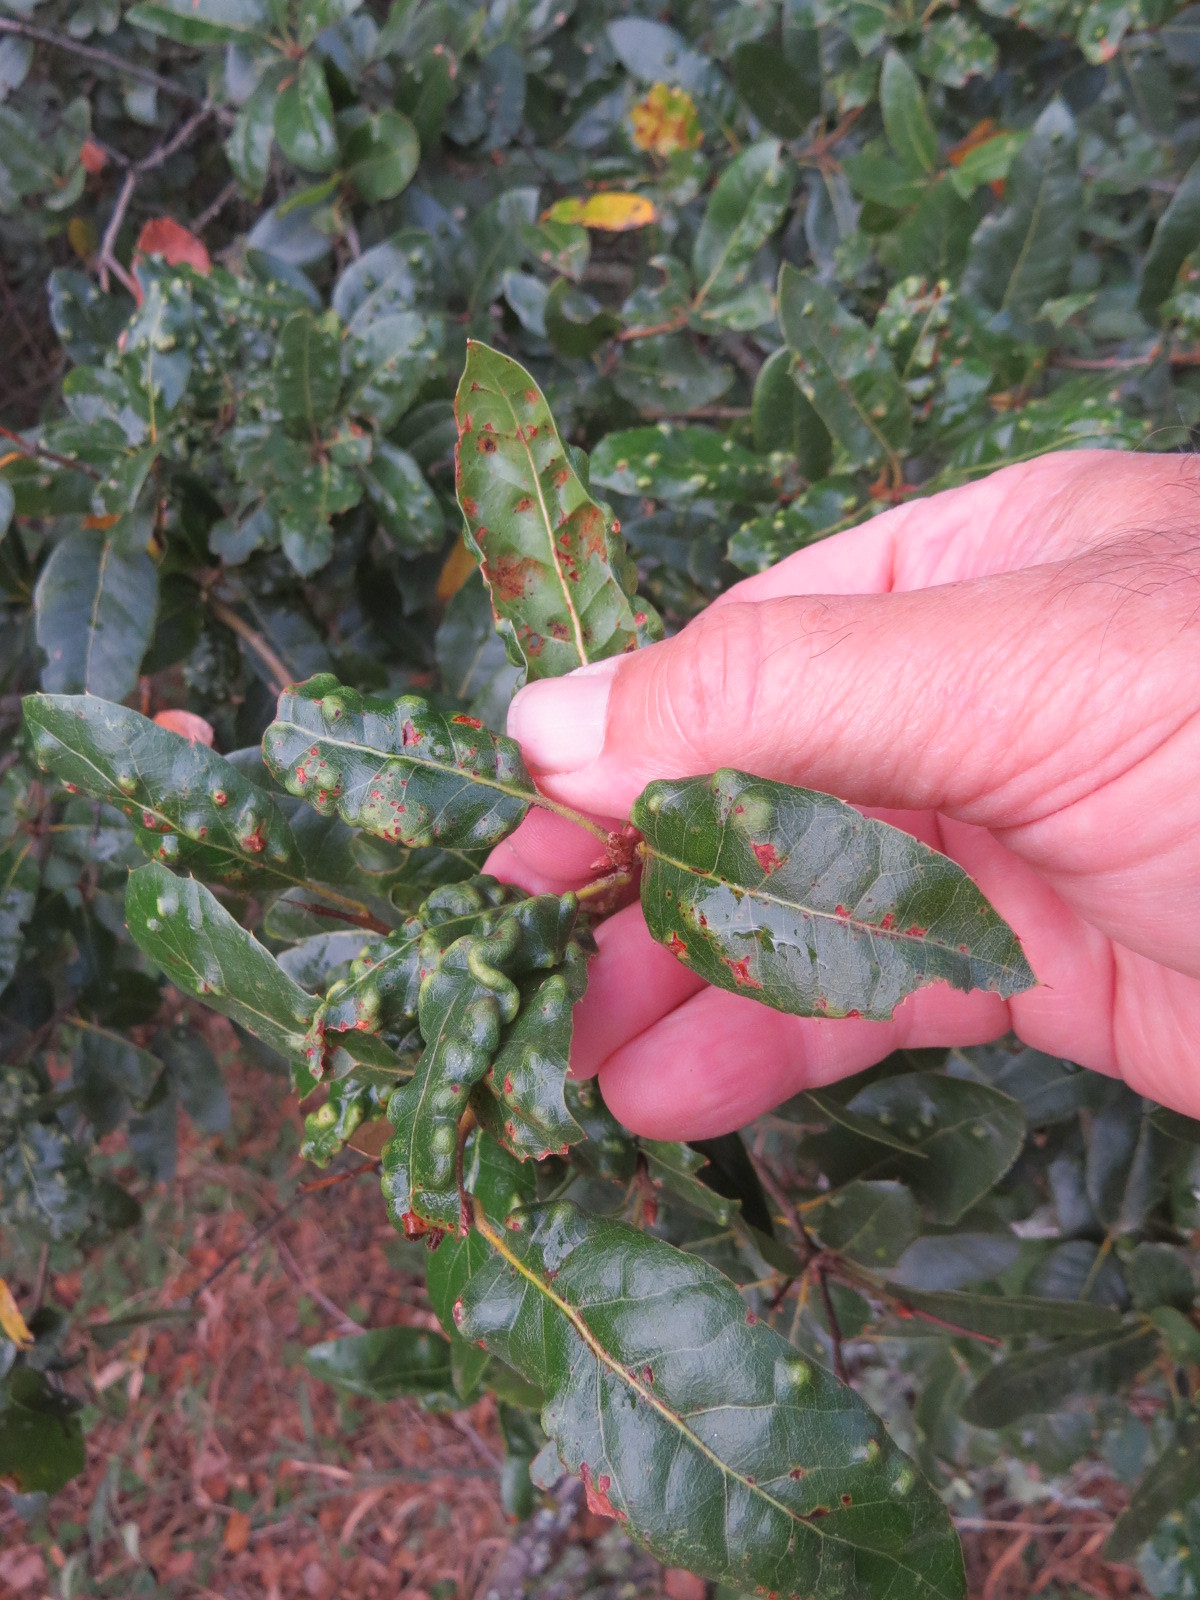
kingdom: Animalia
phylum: Arthropoda
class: Arachnida
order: Trombidiformes
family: Eriophyidae
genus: Aceria
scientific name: Aceria
